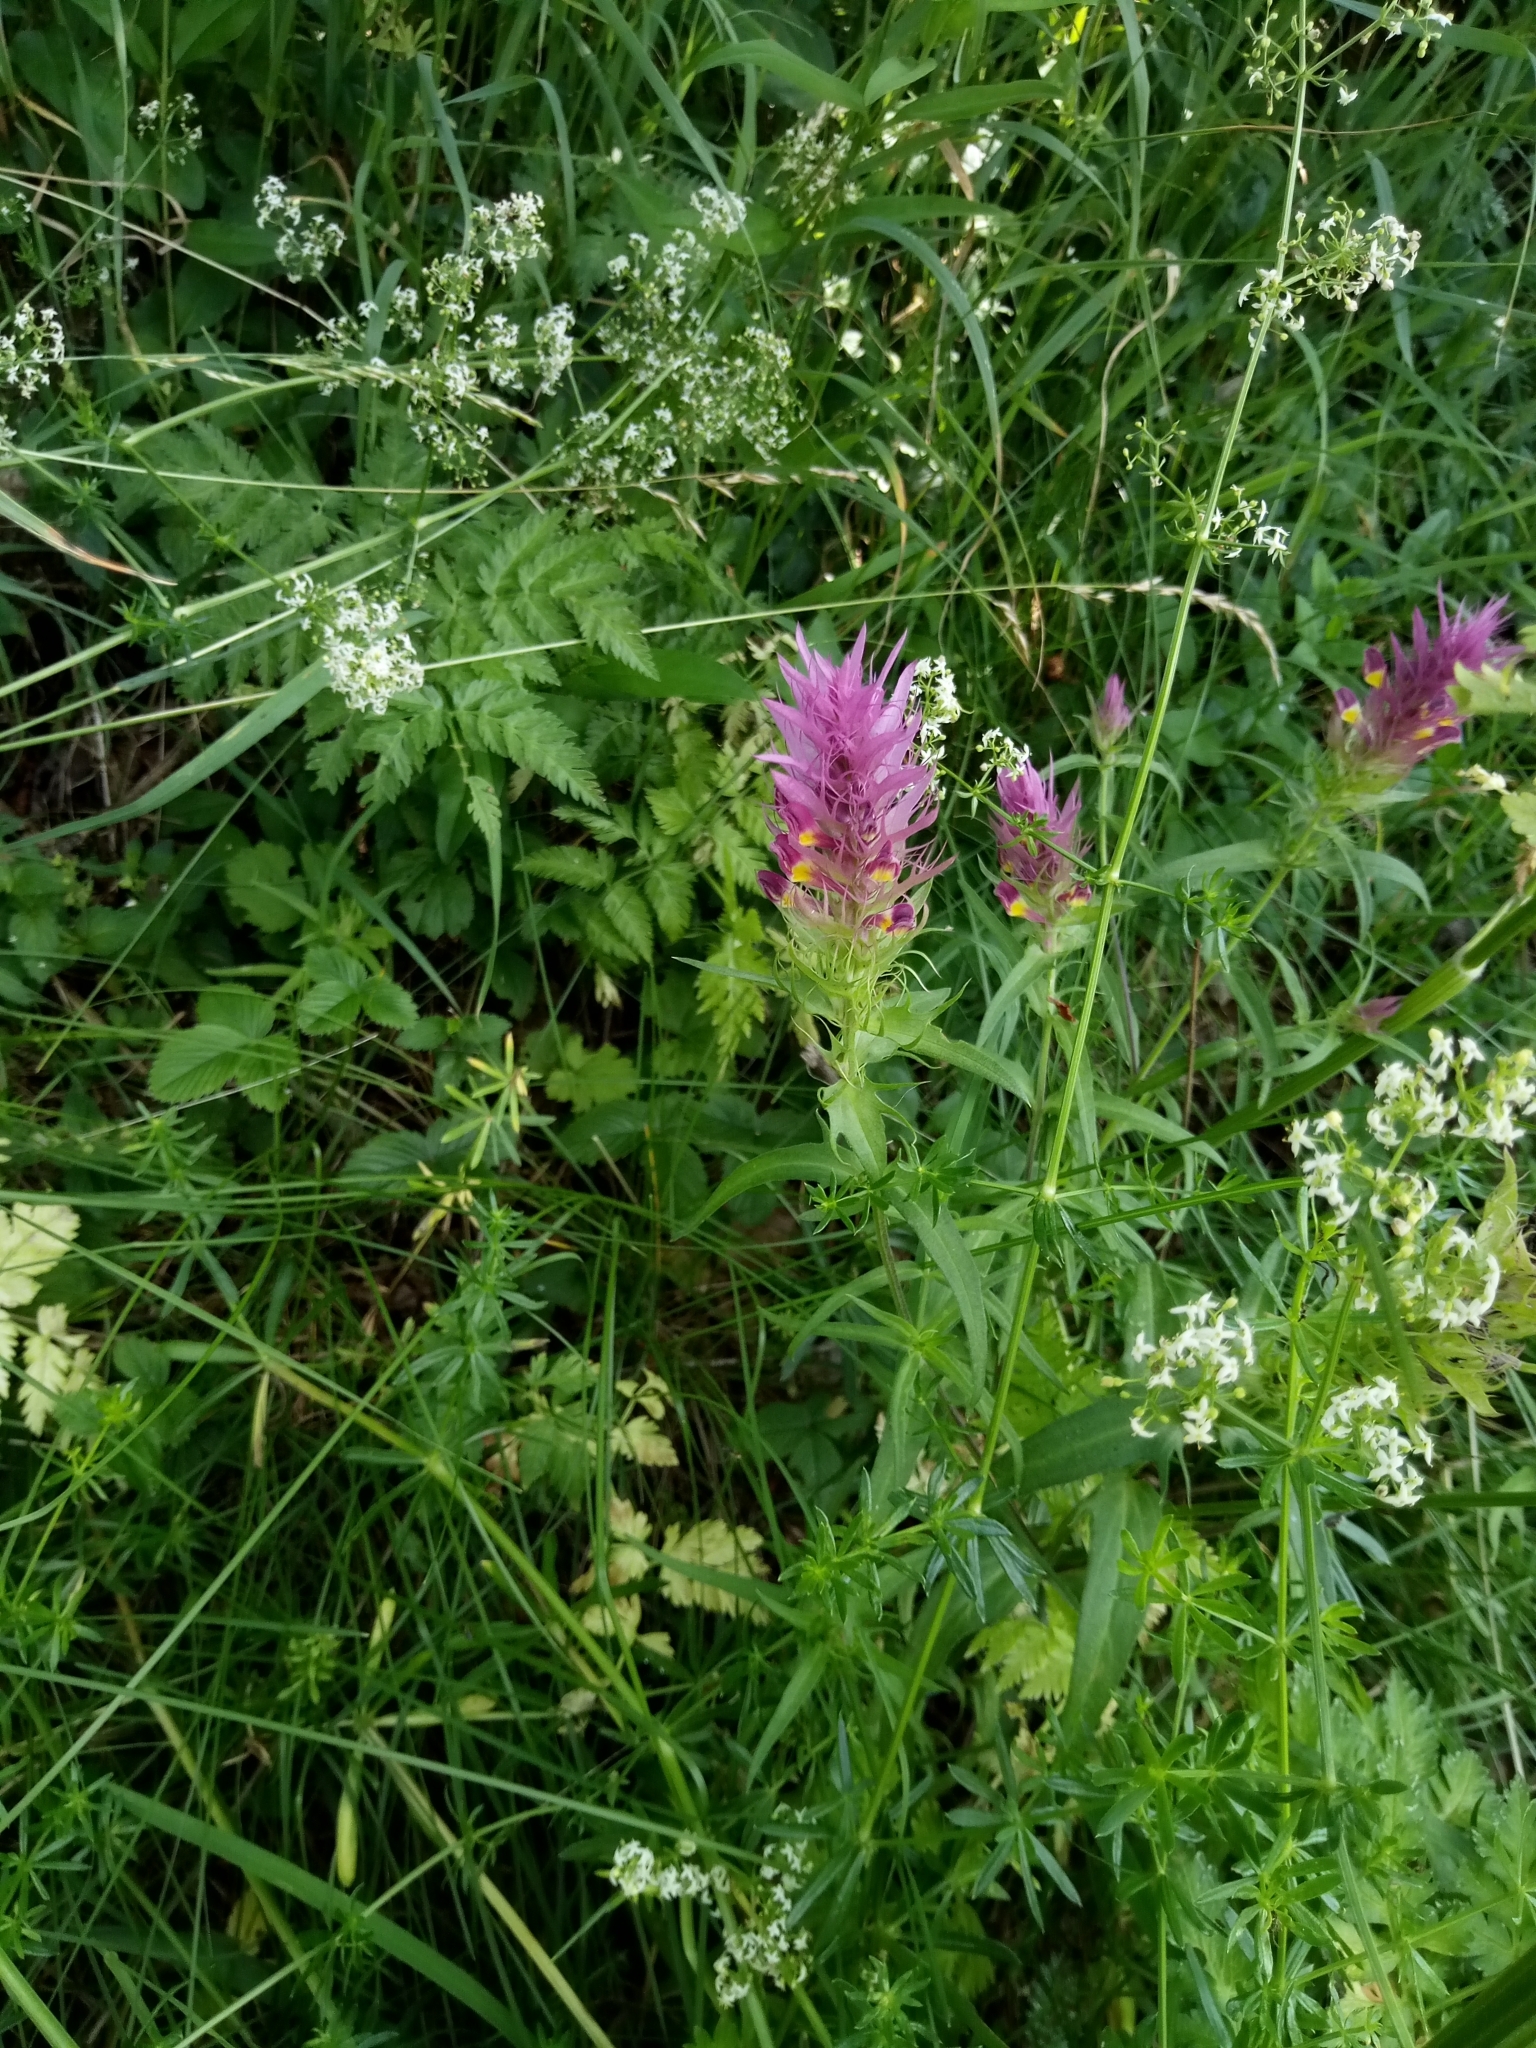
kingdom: Plantae
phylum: Tracheophyta
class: Magnoliopsida
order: Lamiales
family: Orobanchaceae
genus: Melampyrum
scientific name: Melampyrum arvense
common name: Field cow-wheat
